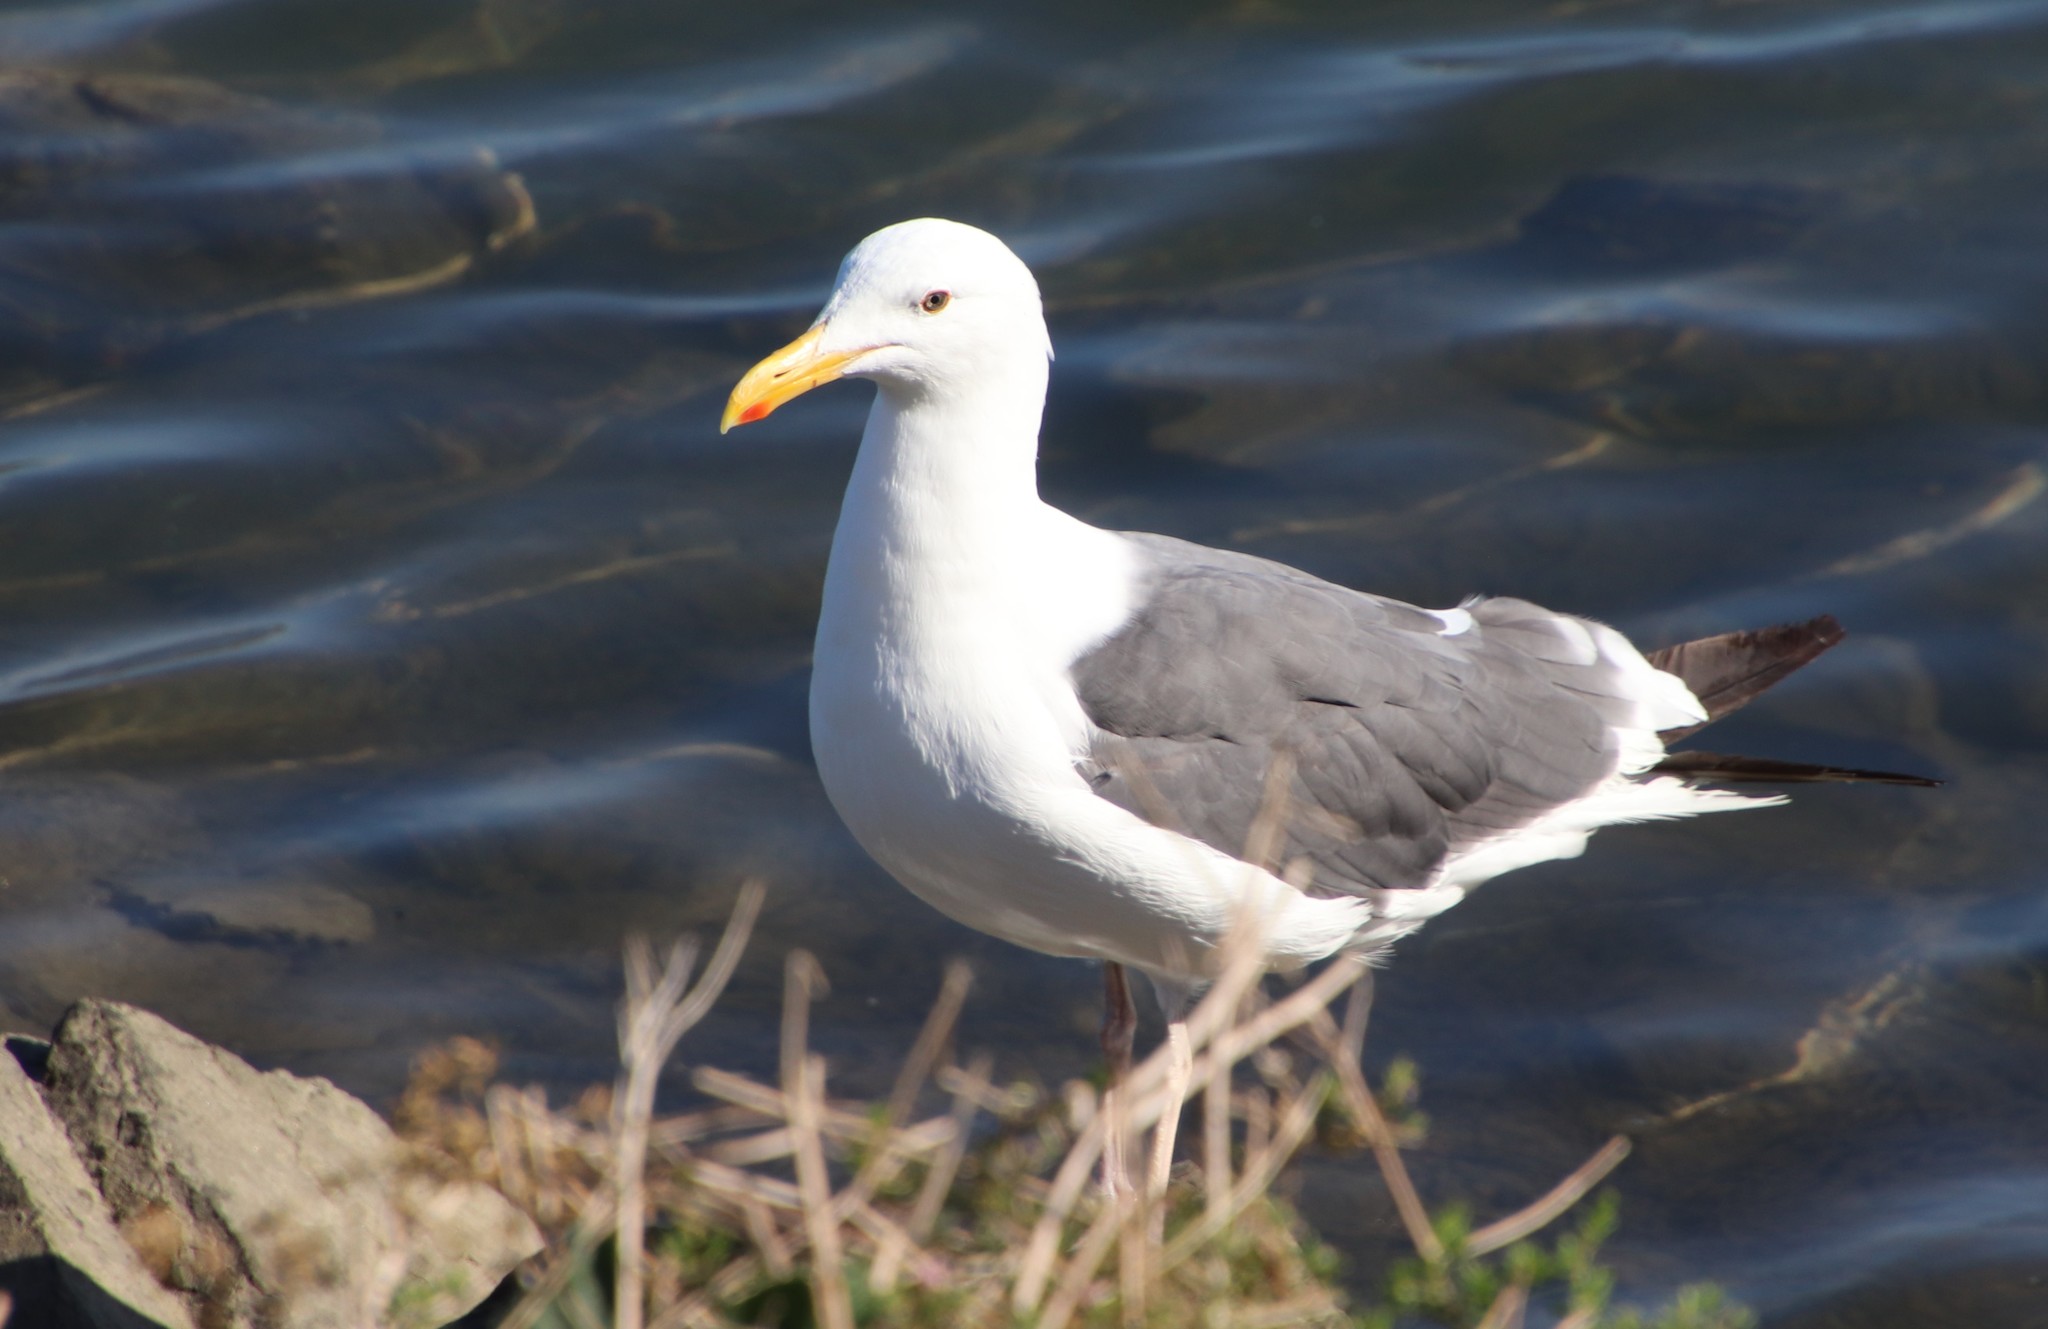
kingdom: Animalia
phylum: Chordata
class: Aves
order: Charadriiformes
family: Laridae
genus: Larus
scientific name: Larus occidentalis
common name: Western gull
